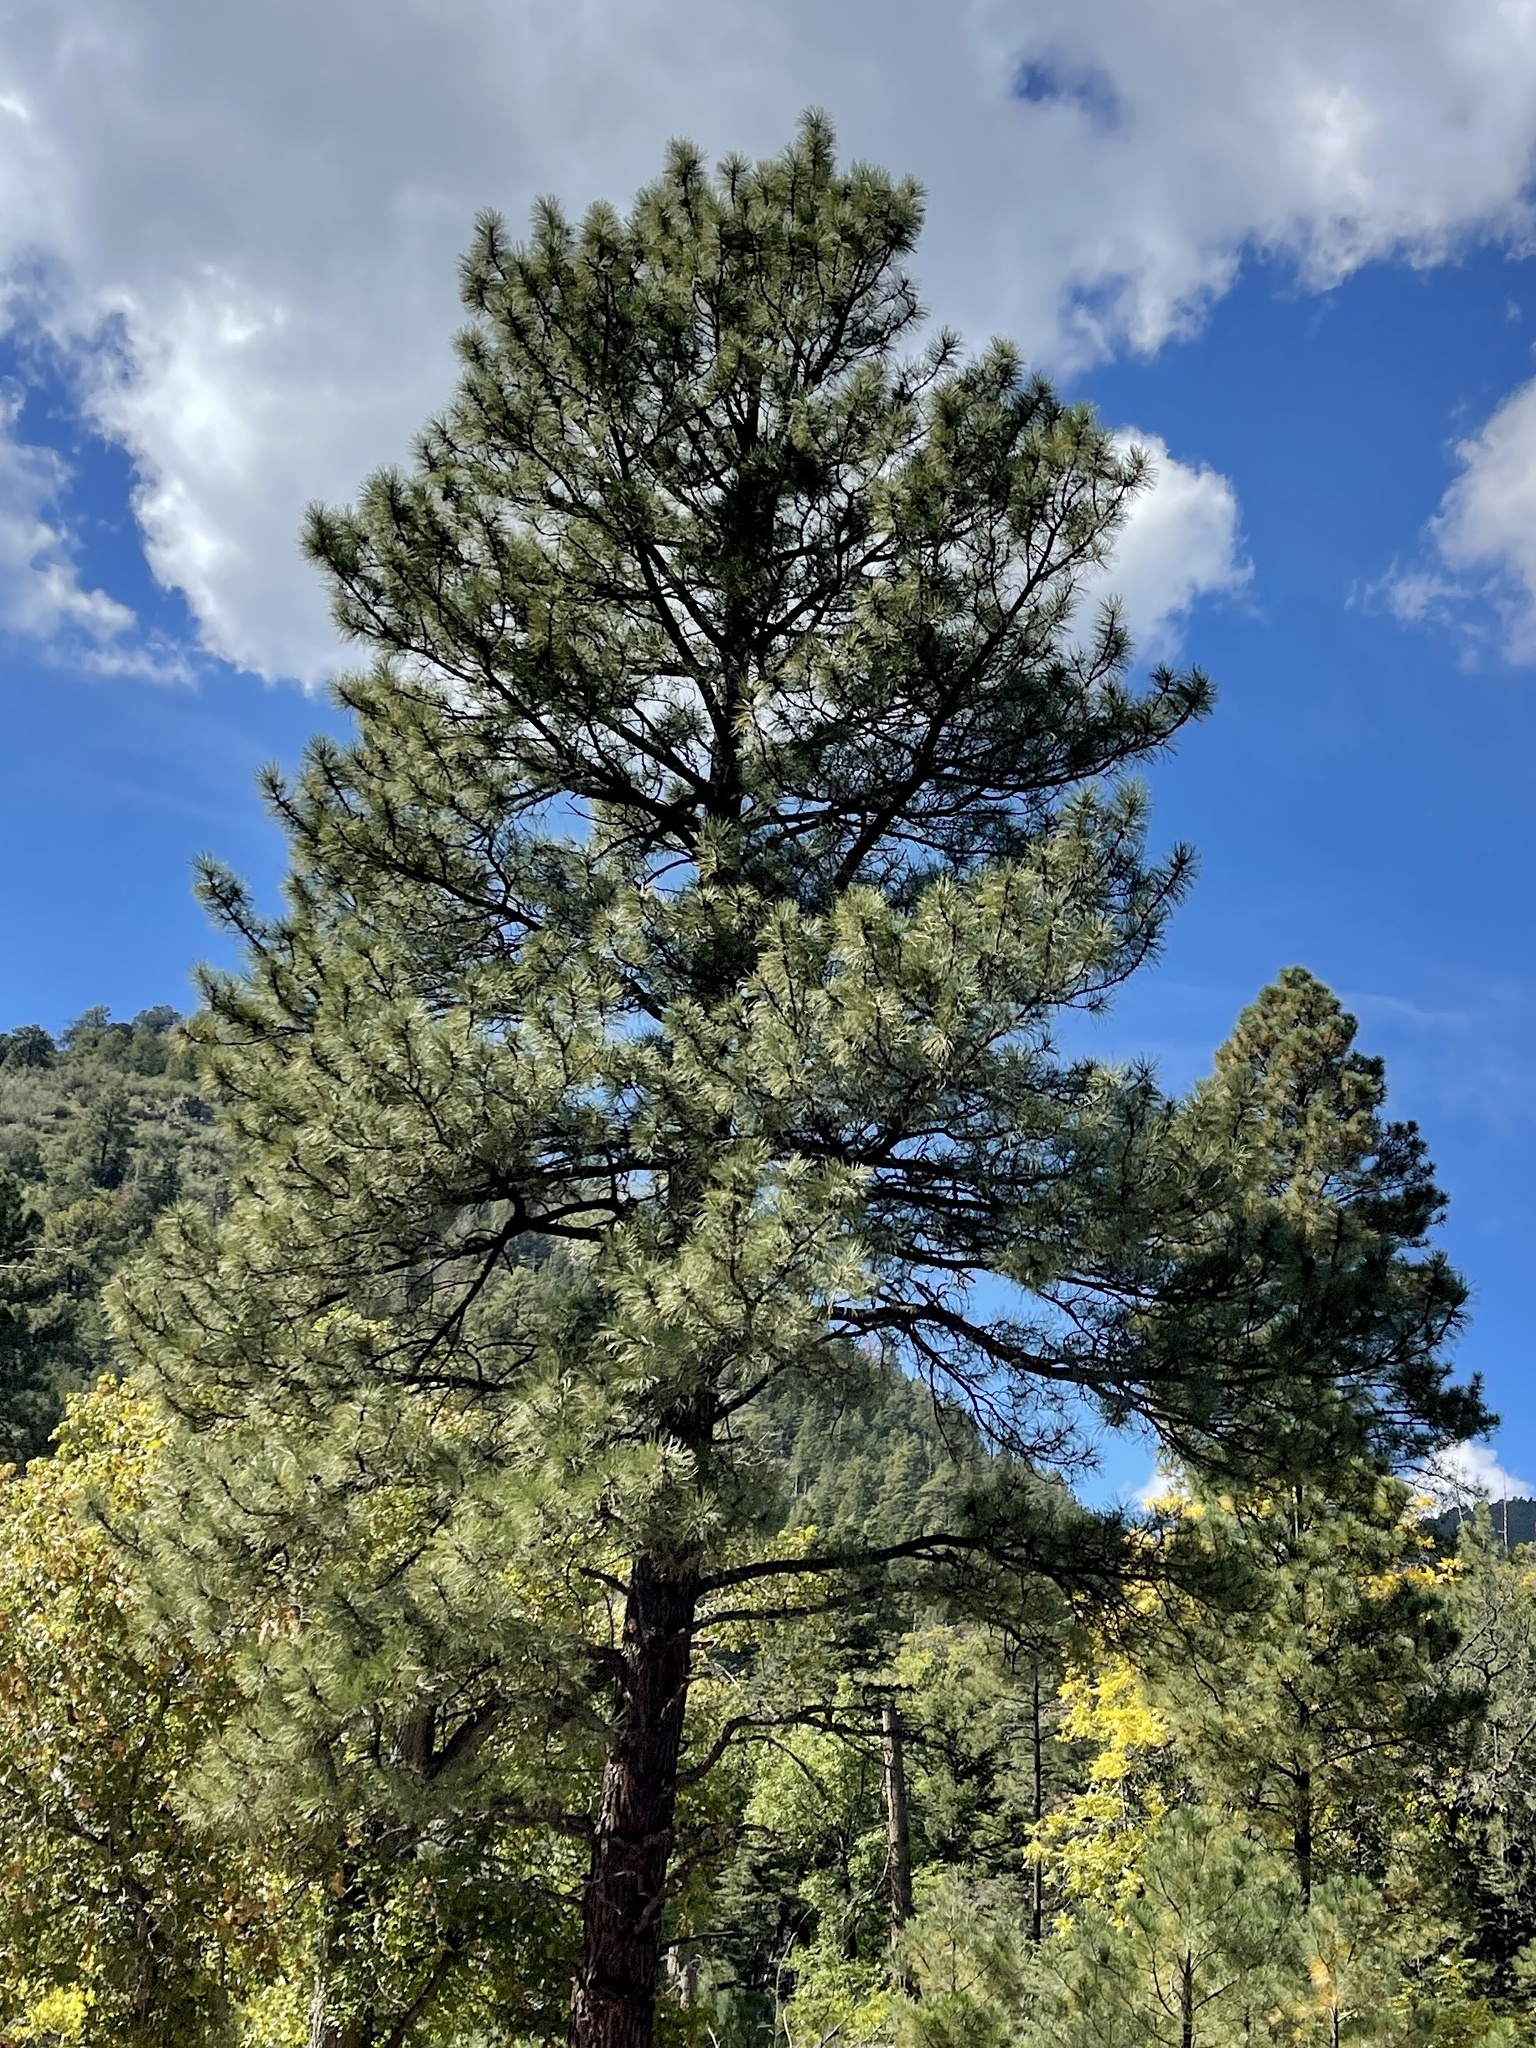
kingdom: Plantae
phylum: Tracheophyta
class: Pinopsida
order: Pinales
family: Pinaceae
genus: Pinus
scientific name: Pinus ponderosa
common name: Western yellow-pine
